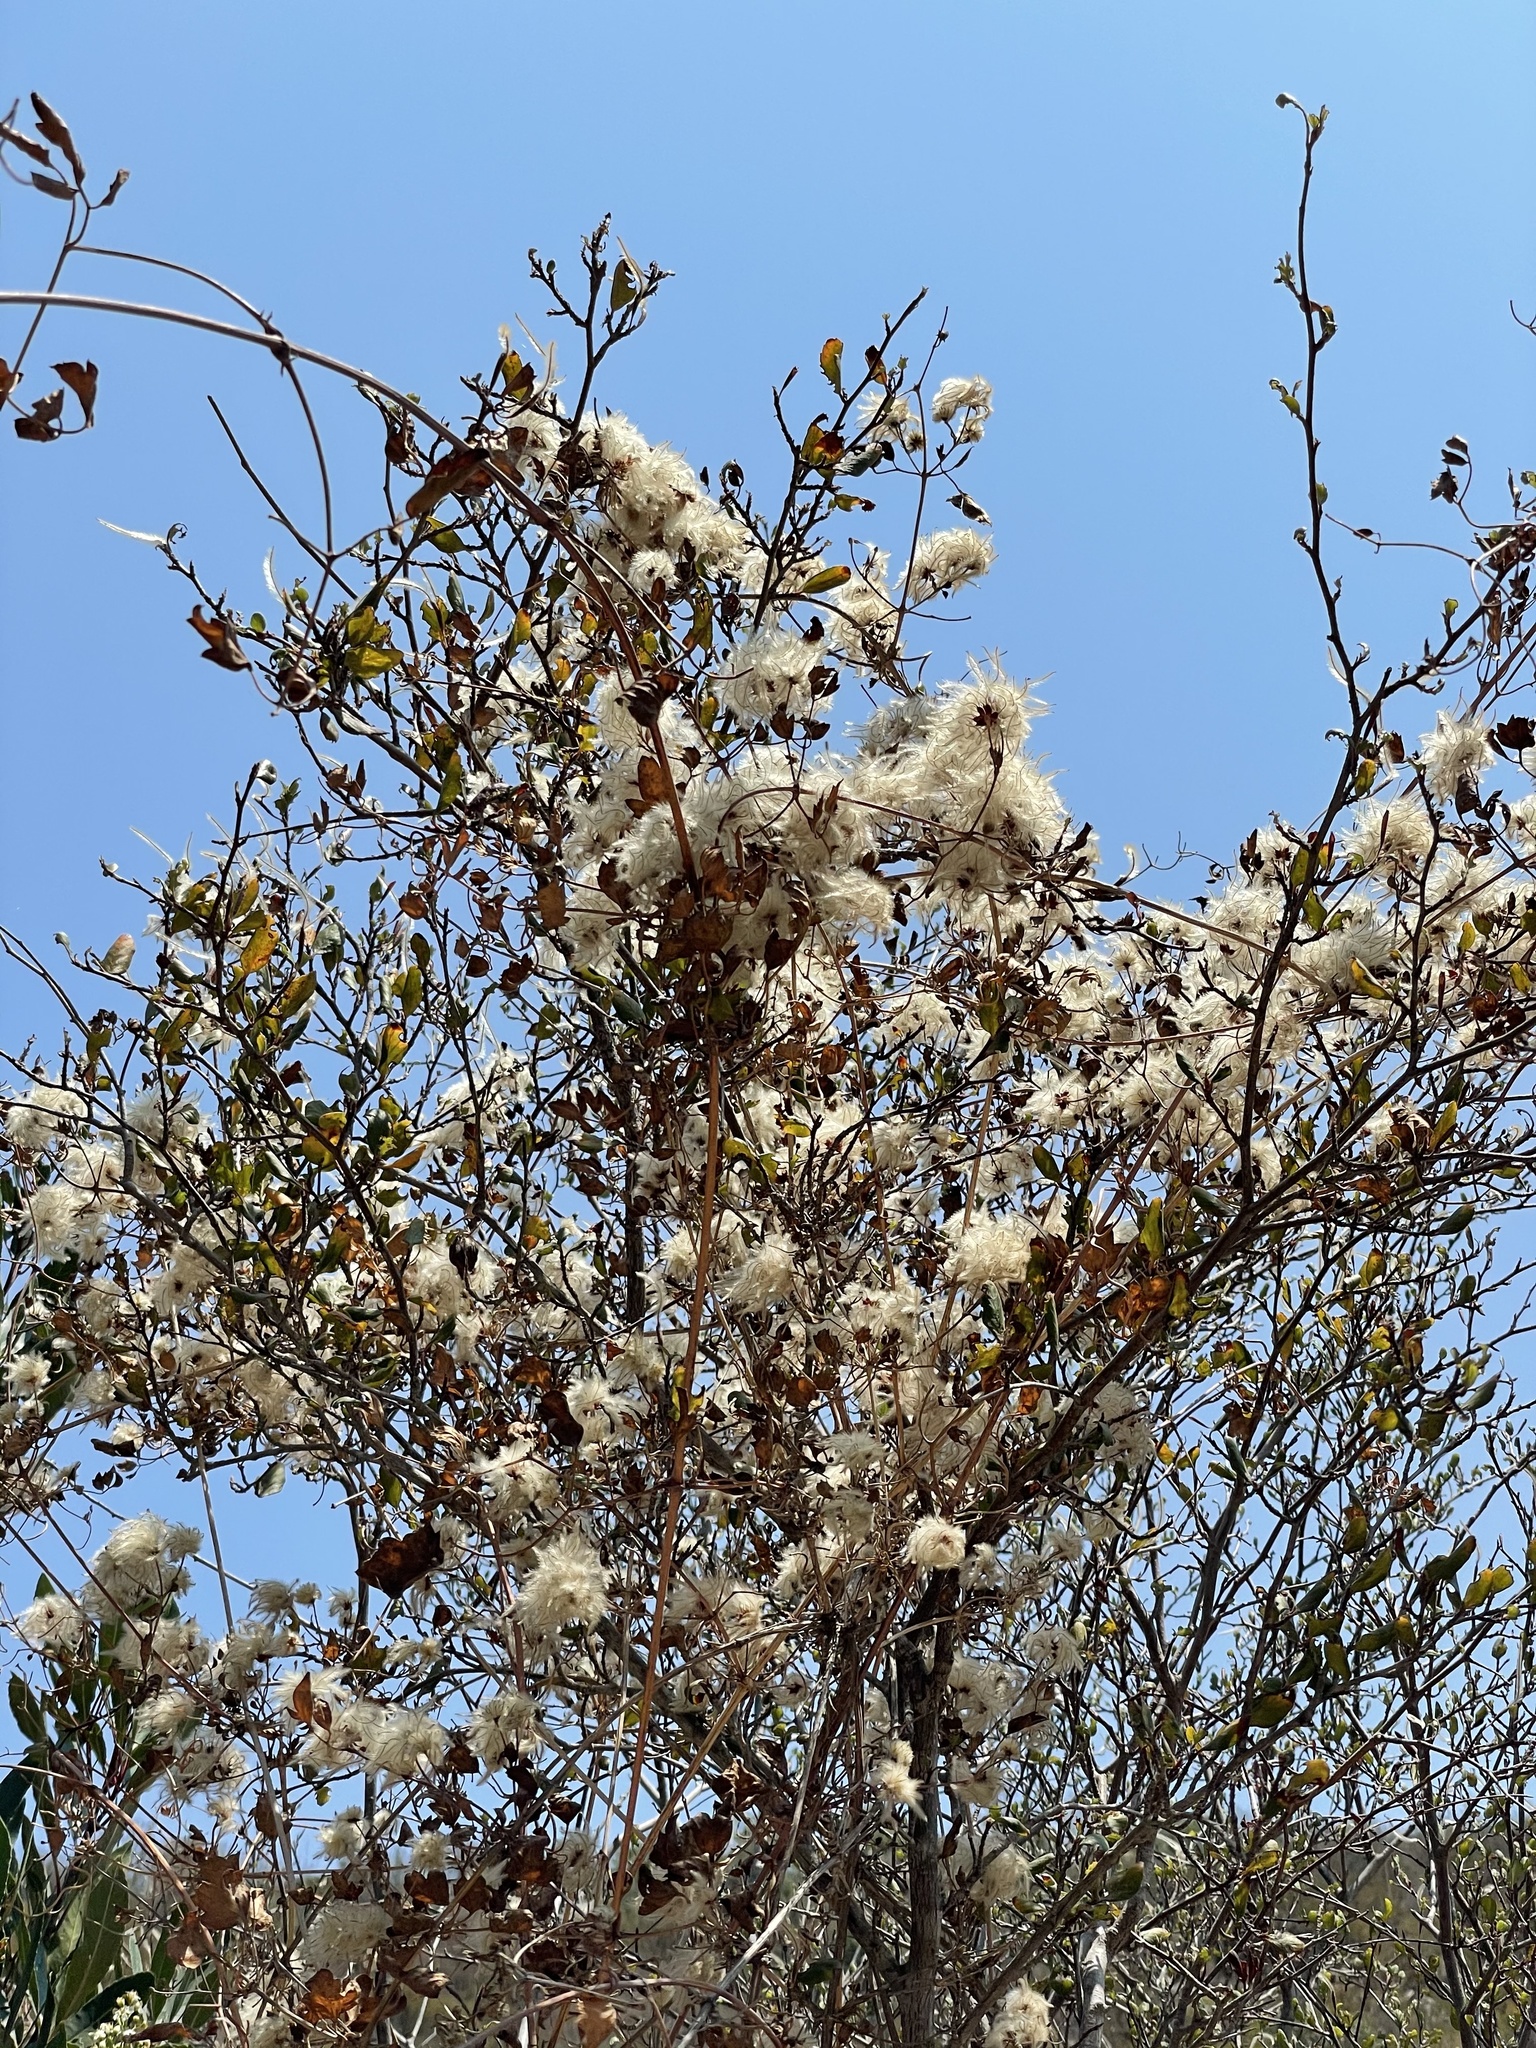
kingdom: Plantae
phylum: Tracheophyta
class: Magnoliopsida
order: Ranunculales
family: Ranunculaceae
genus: Clematis
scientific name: Clematis pauciflora
